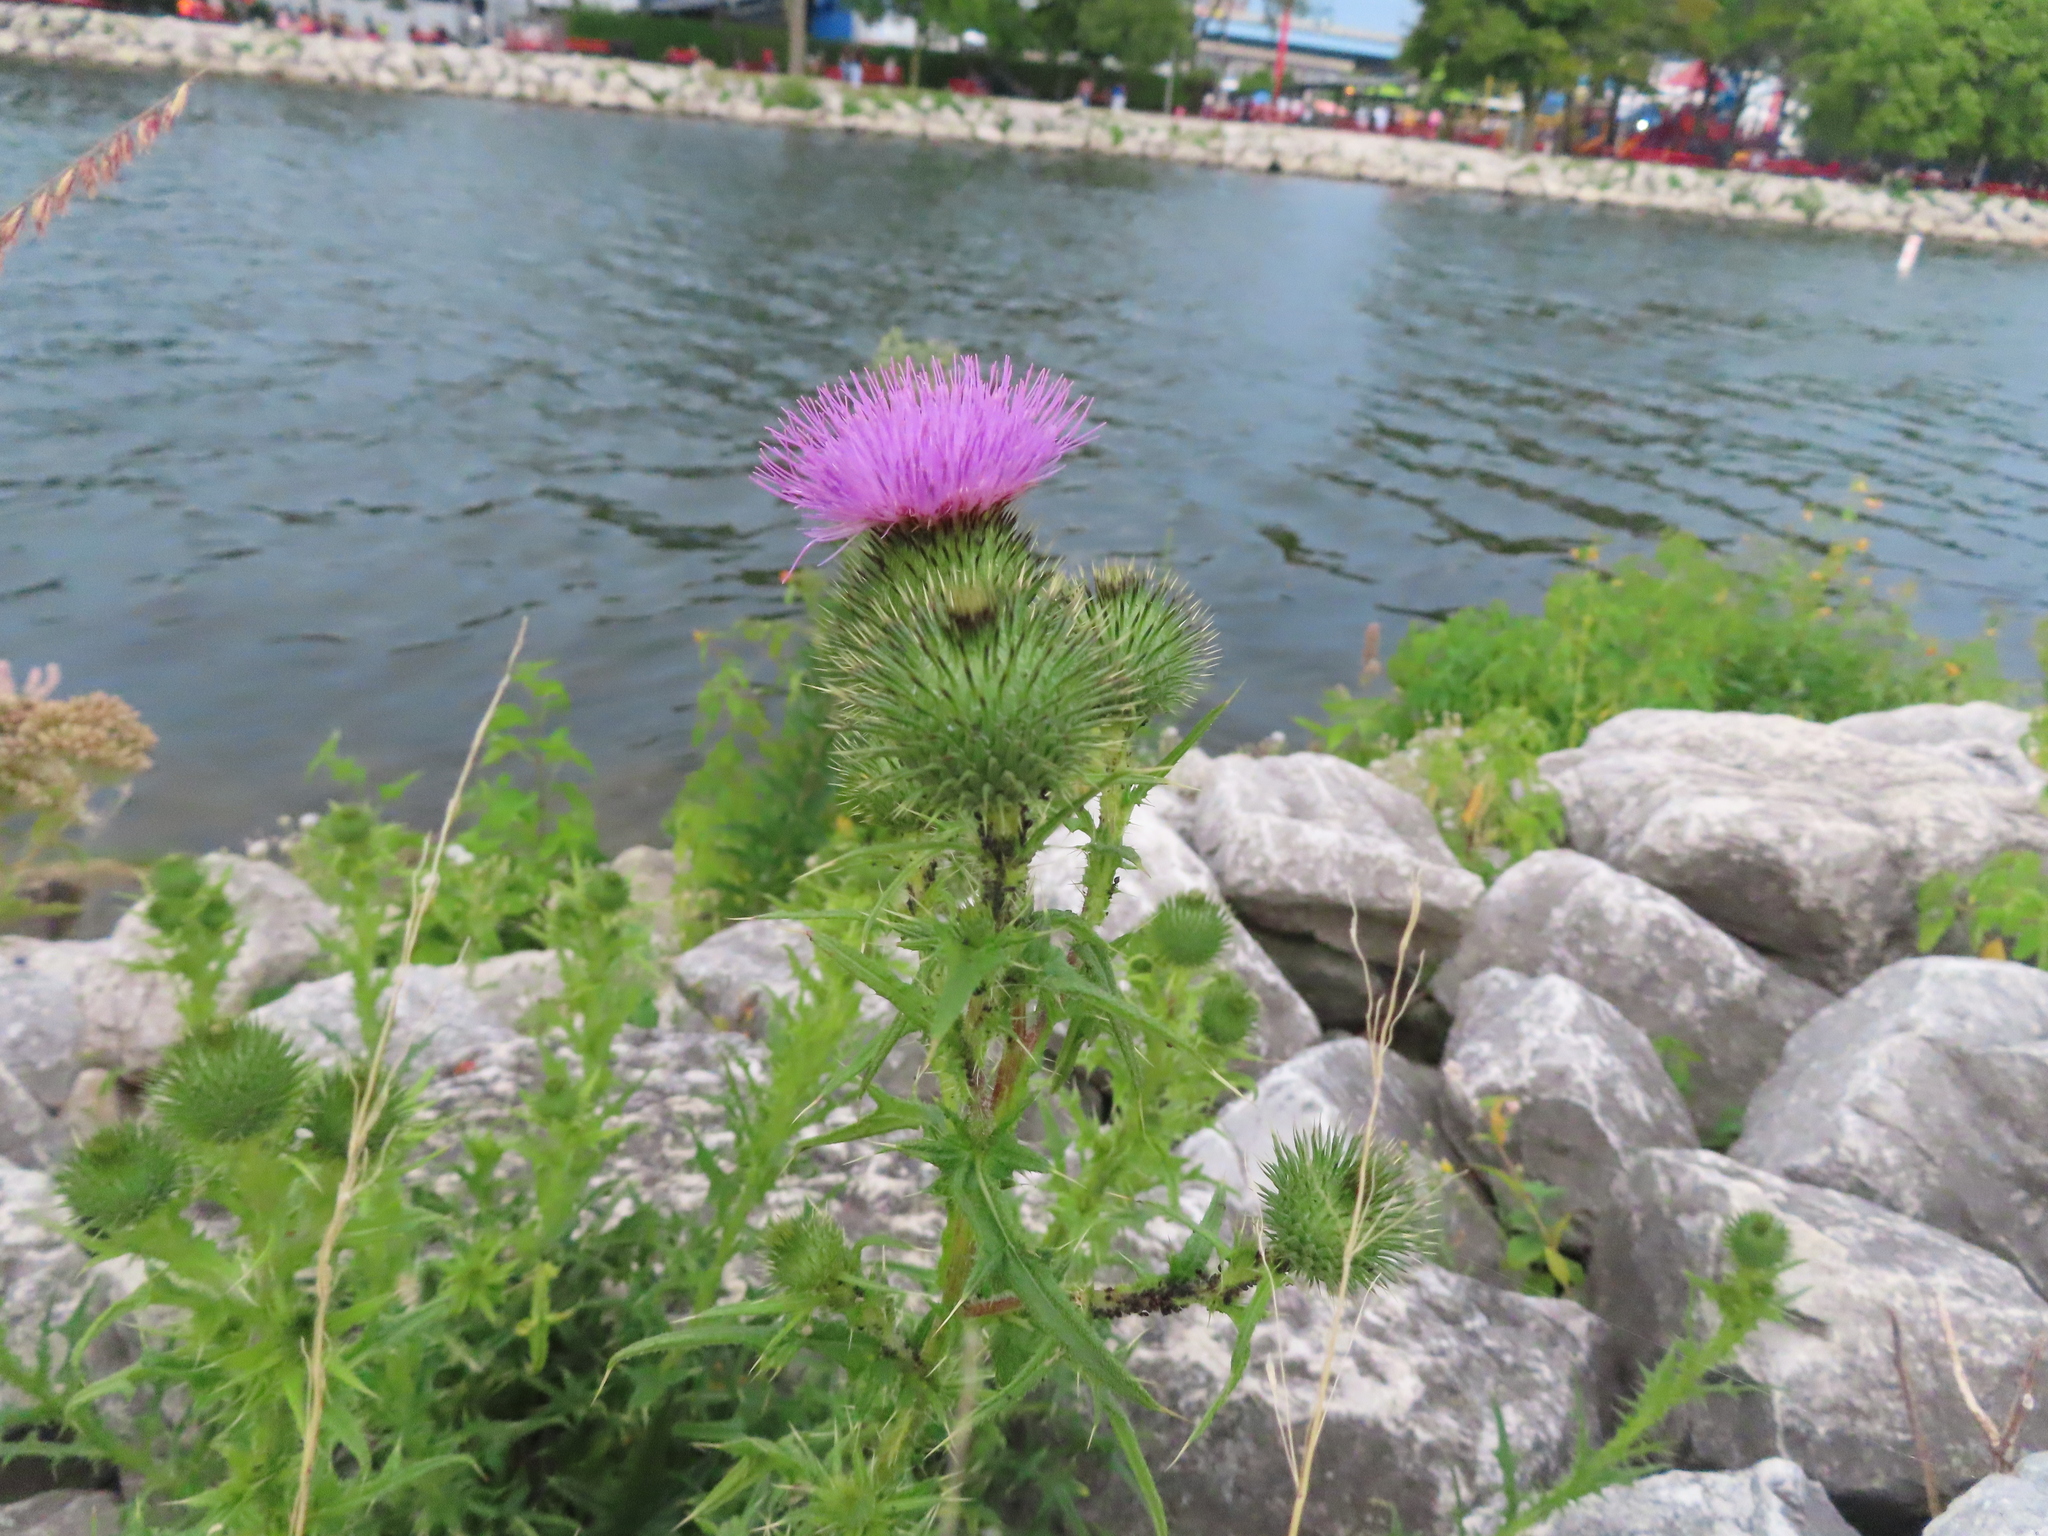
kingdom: Plantae
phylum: Tracheophyta
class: Magnoliopsida
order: Asterales
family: Asteraceae
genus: Cirsium
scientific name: Cirsium vulgare
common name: Bull thistle
